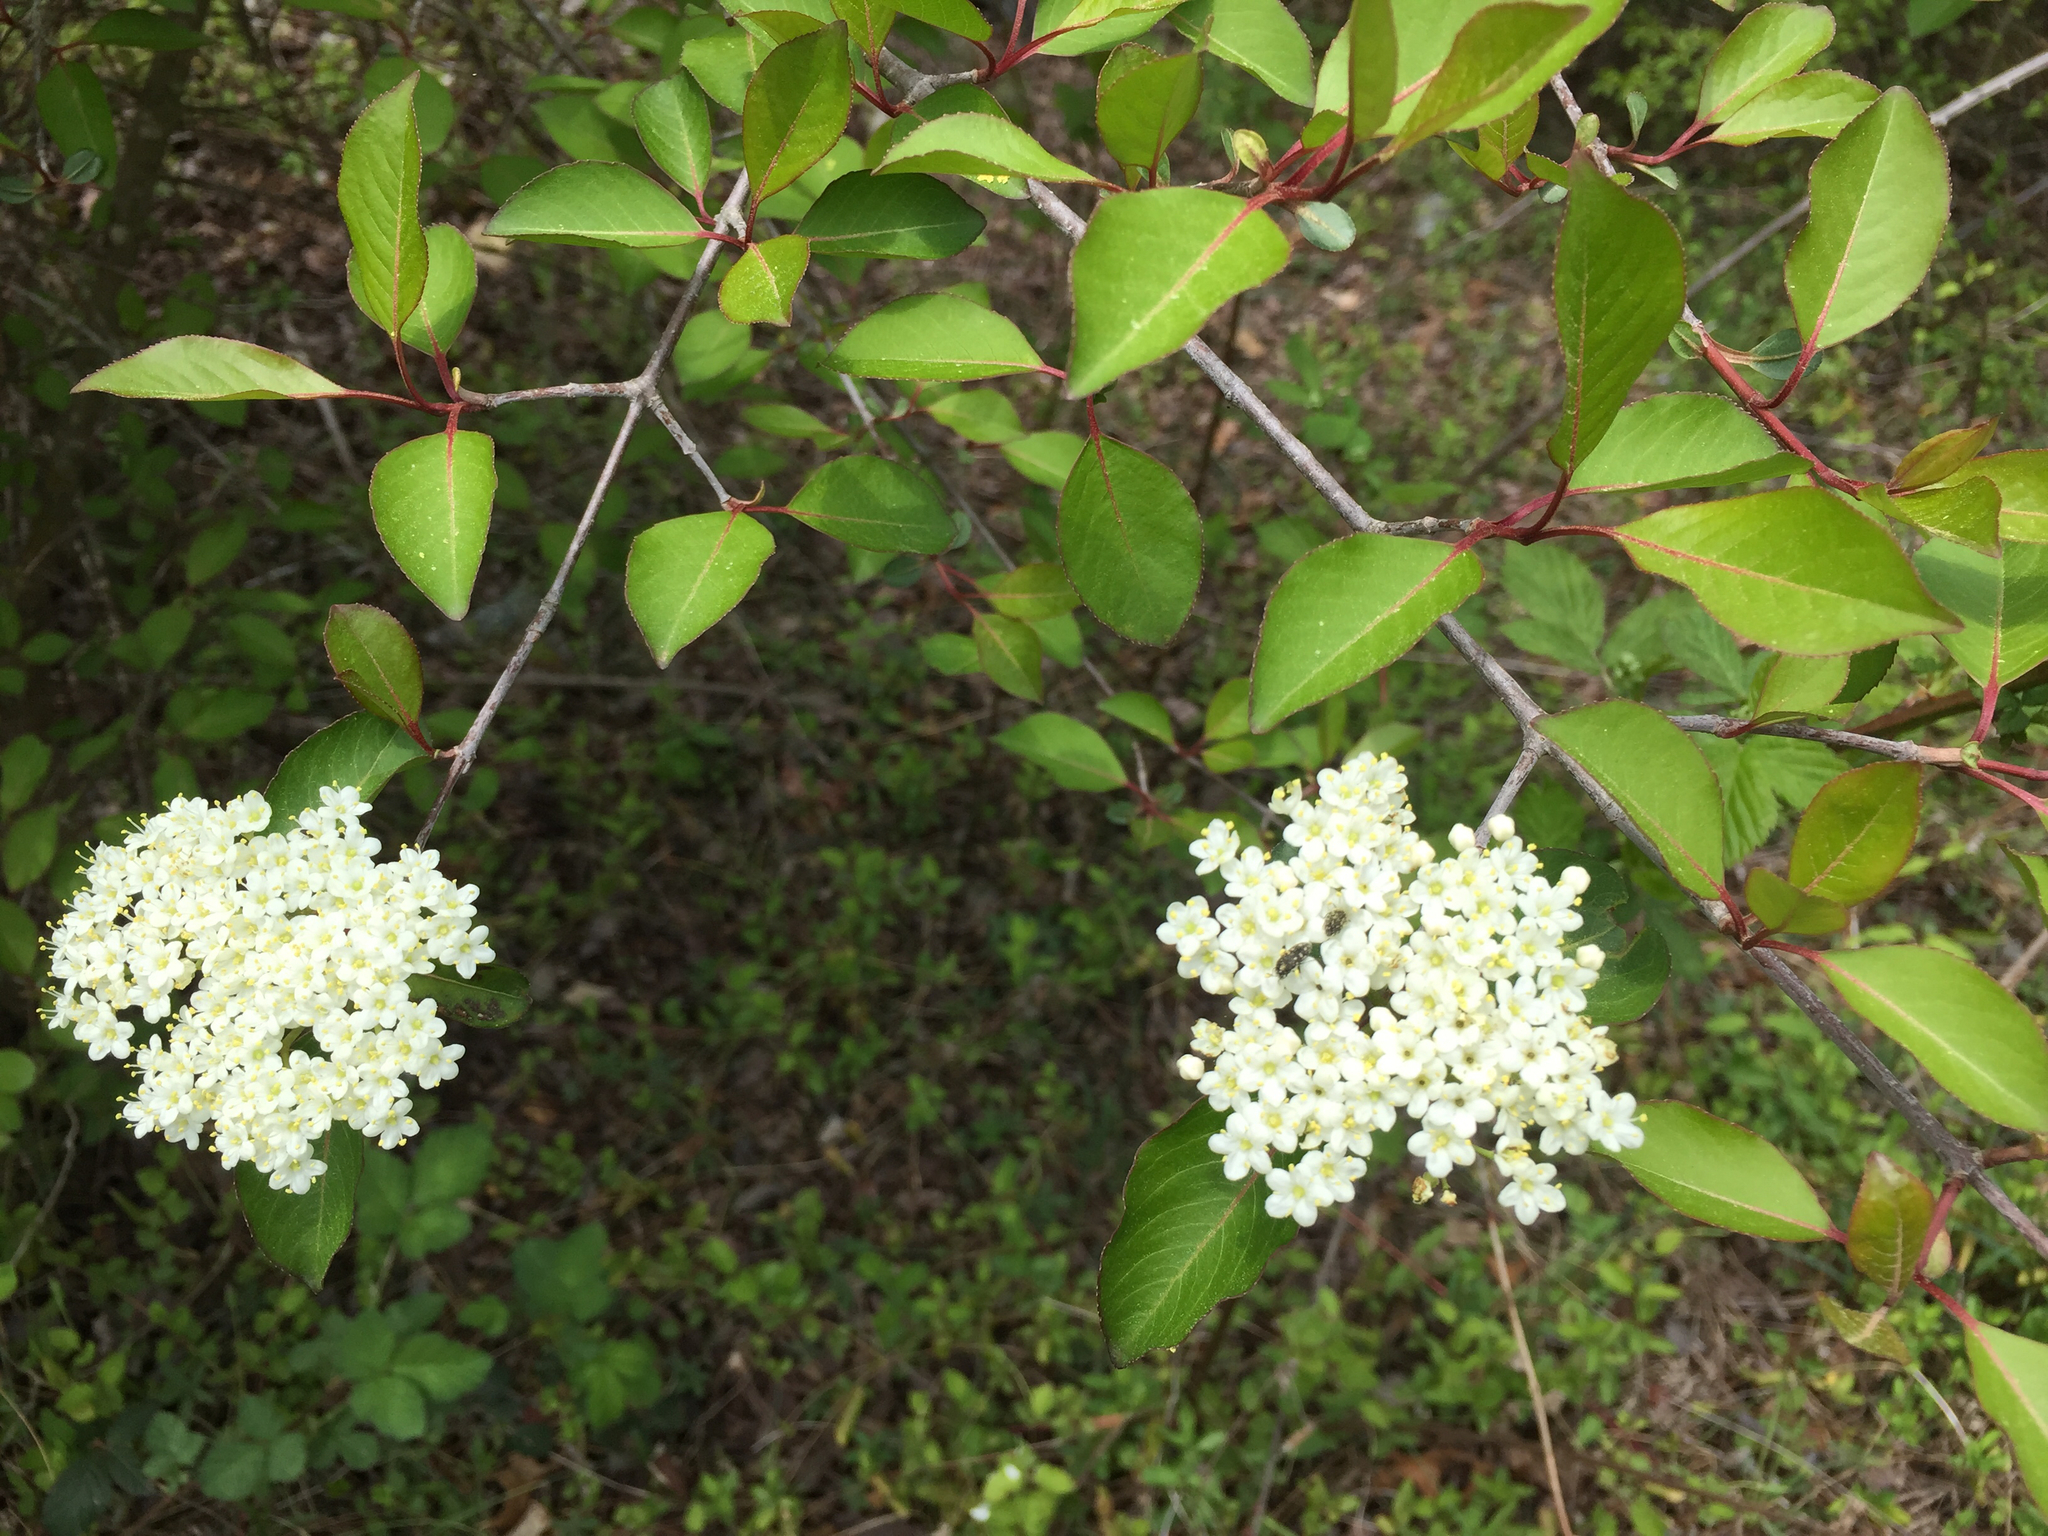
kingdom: Plantae
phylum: Tracheophyta
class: Magnoliopsida
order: Dipsacales
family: Viburnaceae
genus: Viburnum
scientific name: Viburnum prunifolium
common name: Black haw
